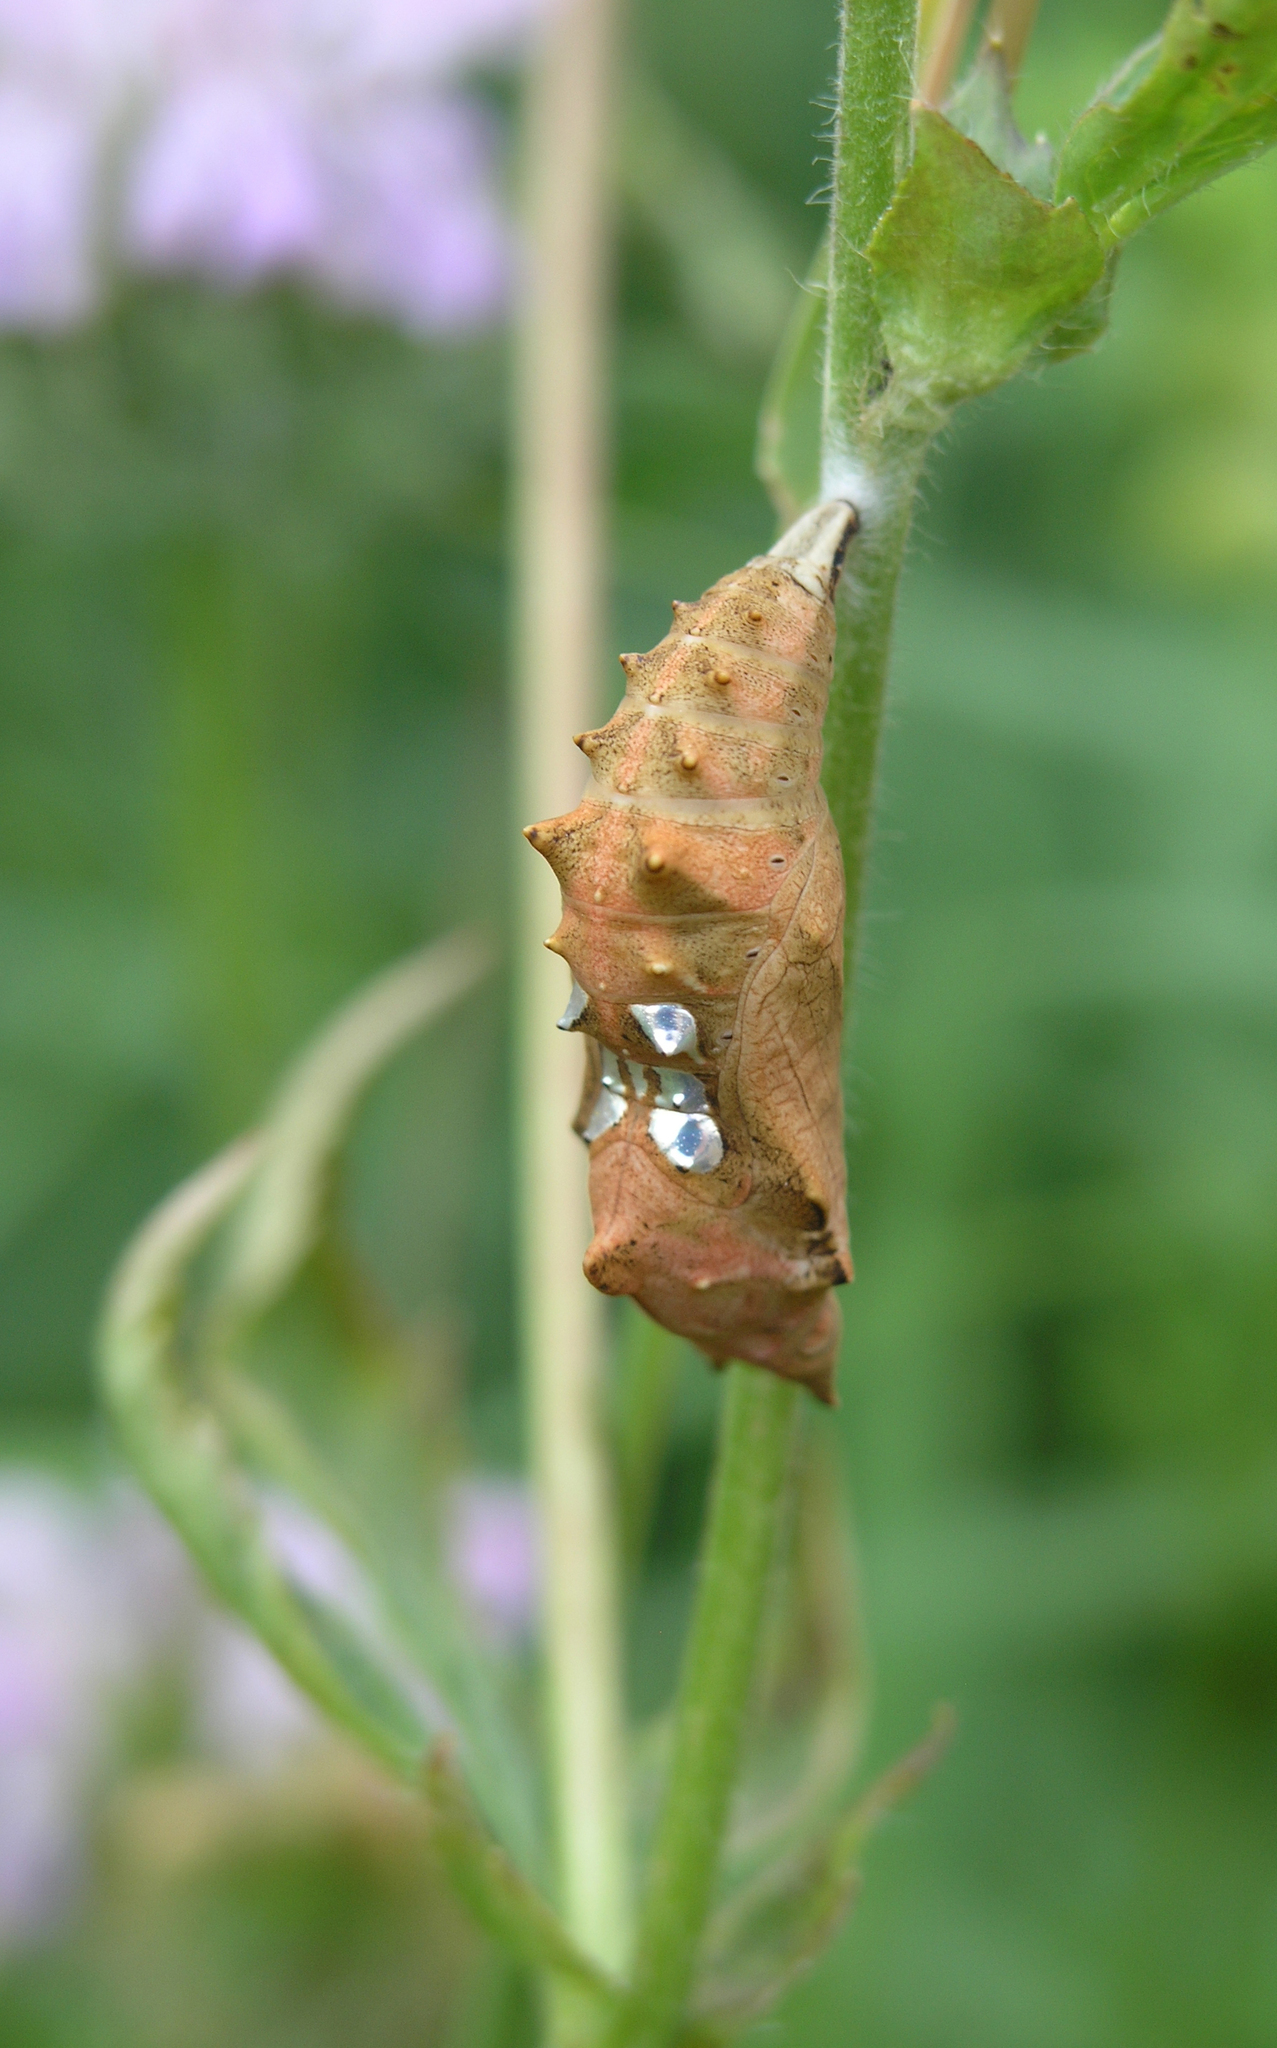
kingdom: Animalia
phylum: Arthropoda
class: Insecta
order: Lepidoptera
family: Nymphalidae
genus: Polygonia
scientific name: Polygonia vaualbum
